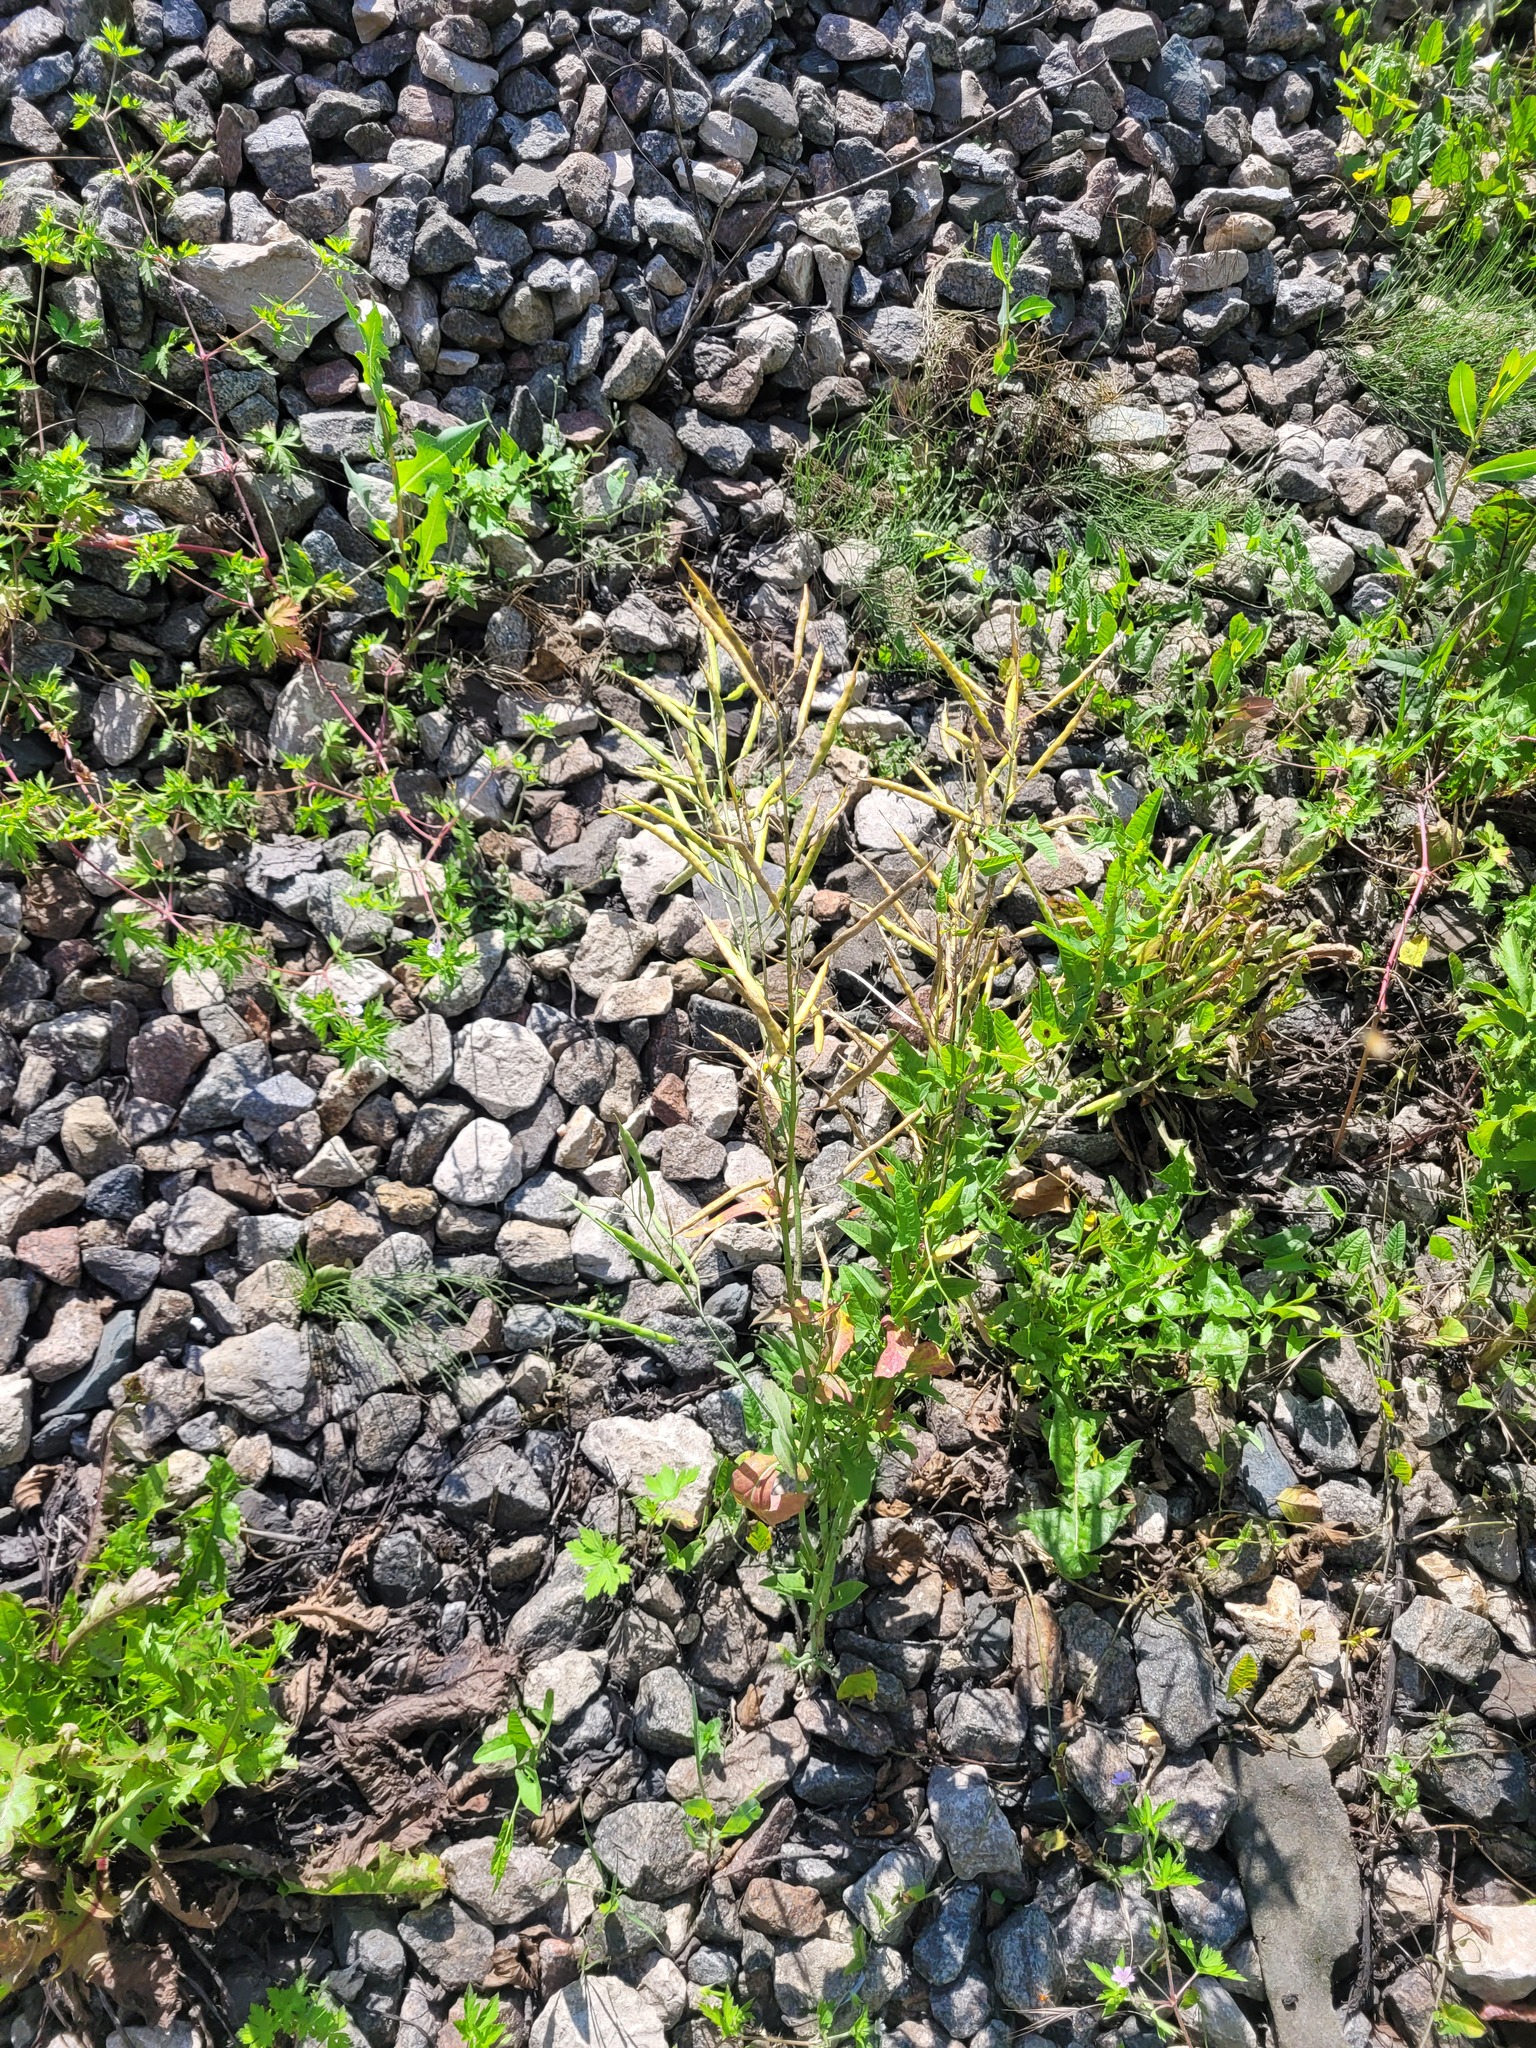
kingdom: Plantae
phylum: Tracheophyta
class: Magnoliopsida
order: Brassicales
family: Brassicaceae
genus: Brassica
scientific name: Brassica napus
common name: Rape
